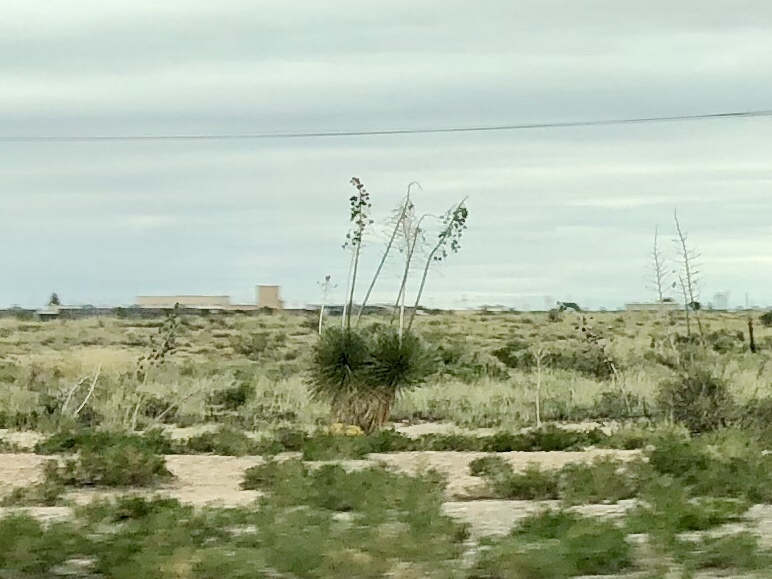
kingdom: Plantae
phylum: Tracheophyta
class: Liliopsida
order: Asparagales
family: Asparagaceae
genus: Yucca
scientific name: Yucca elata
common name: Palmella
